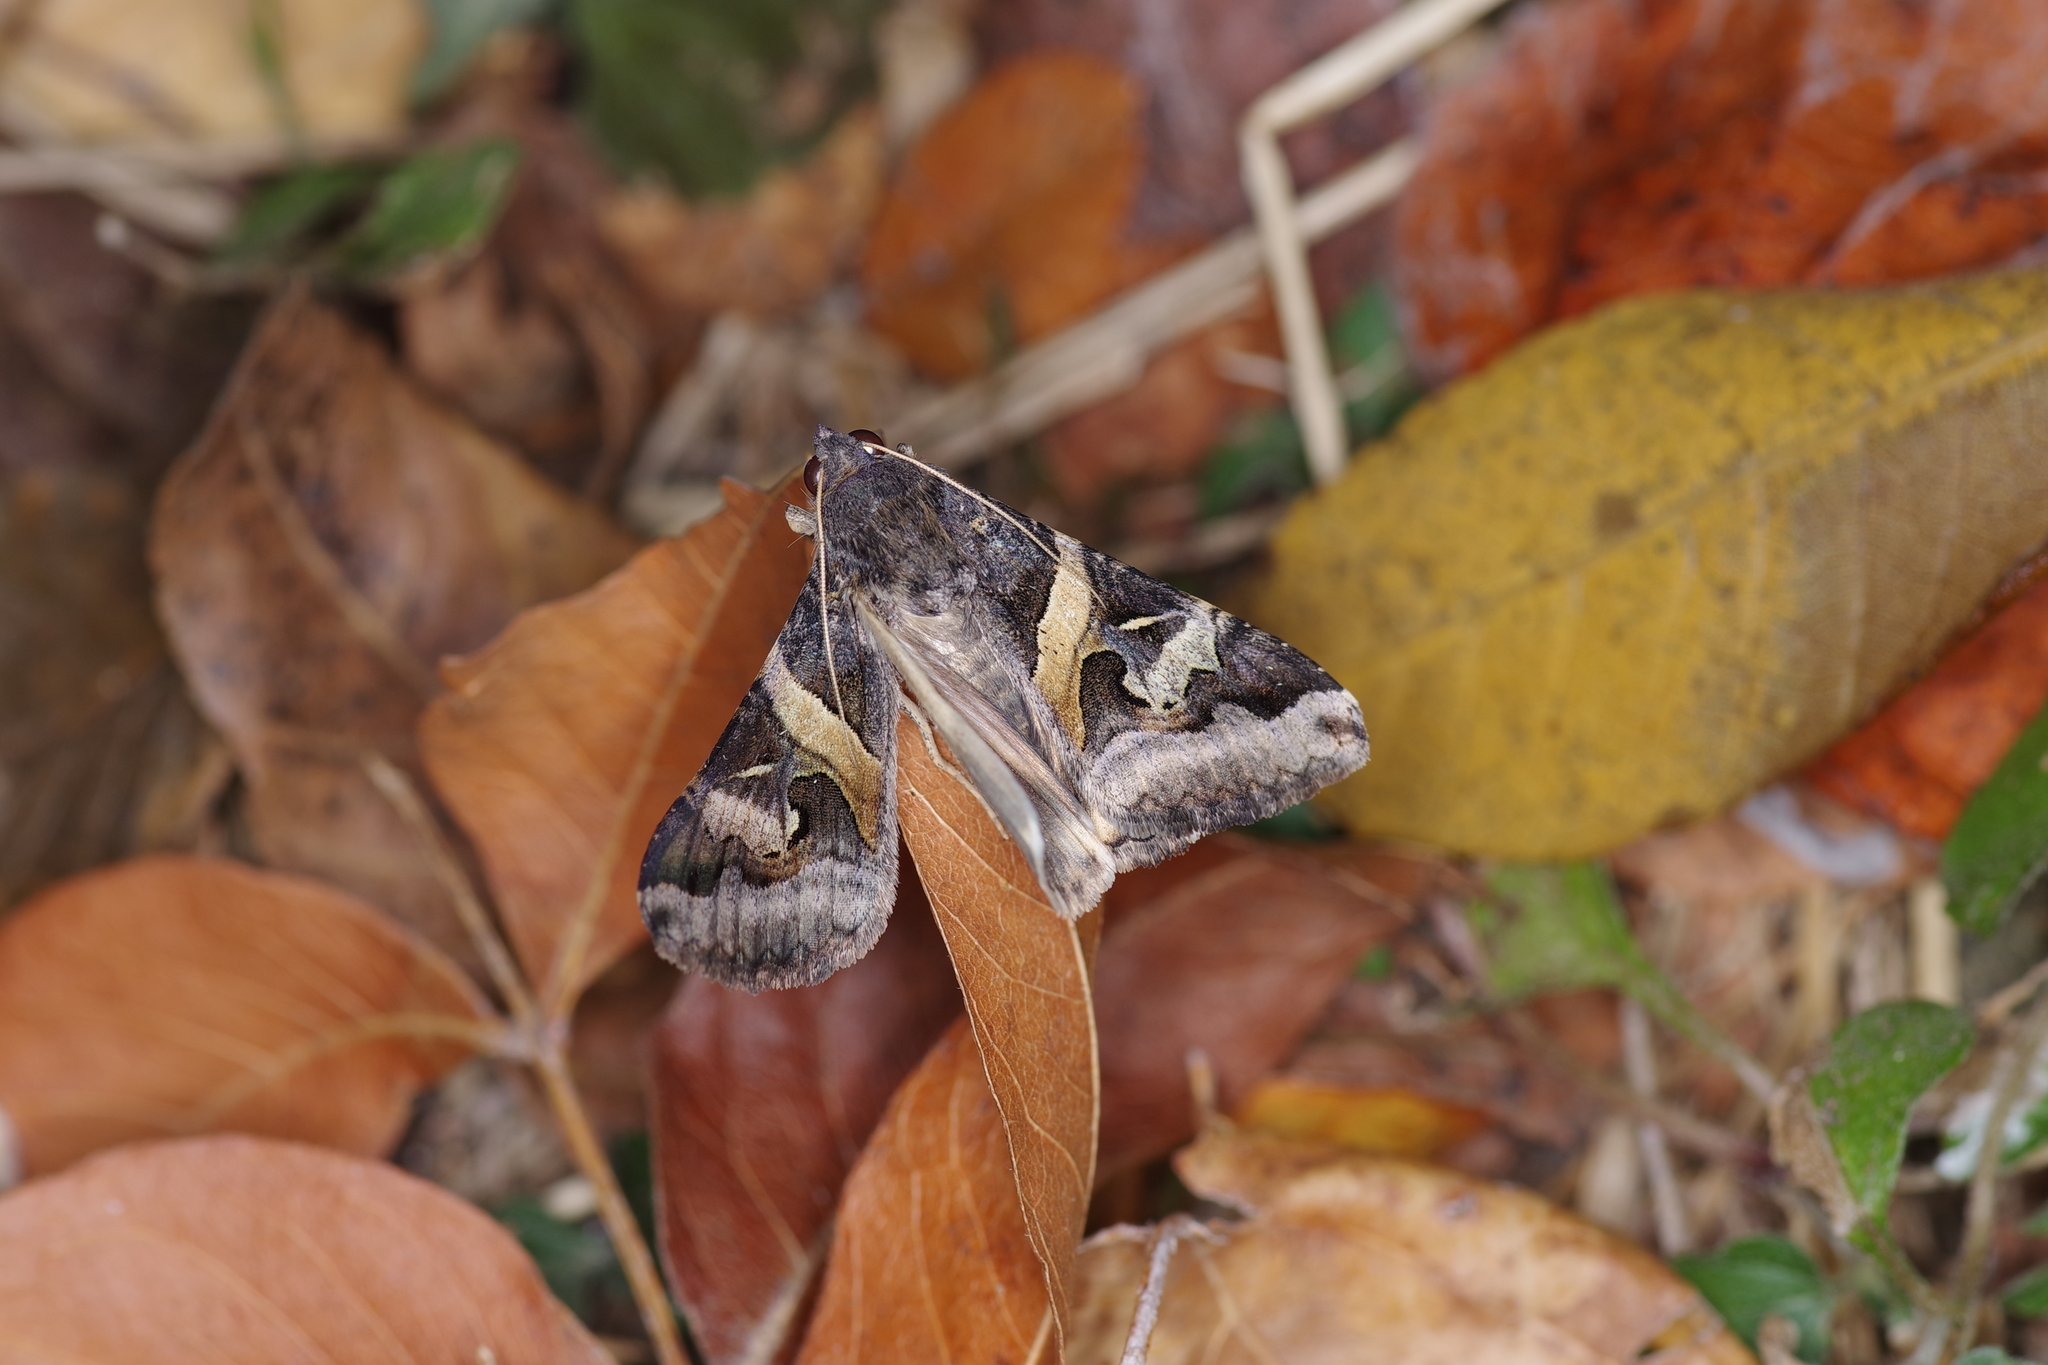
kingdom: Animalia
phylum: Arthropoda
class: Insecta
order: Lepidoptera
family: Erebidae
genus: Melipotis
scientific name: Melipotis indomita
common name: Moth
